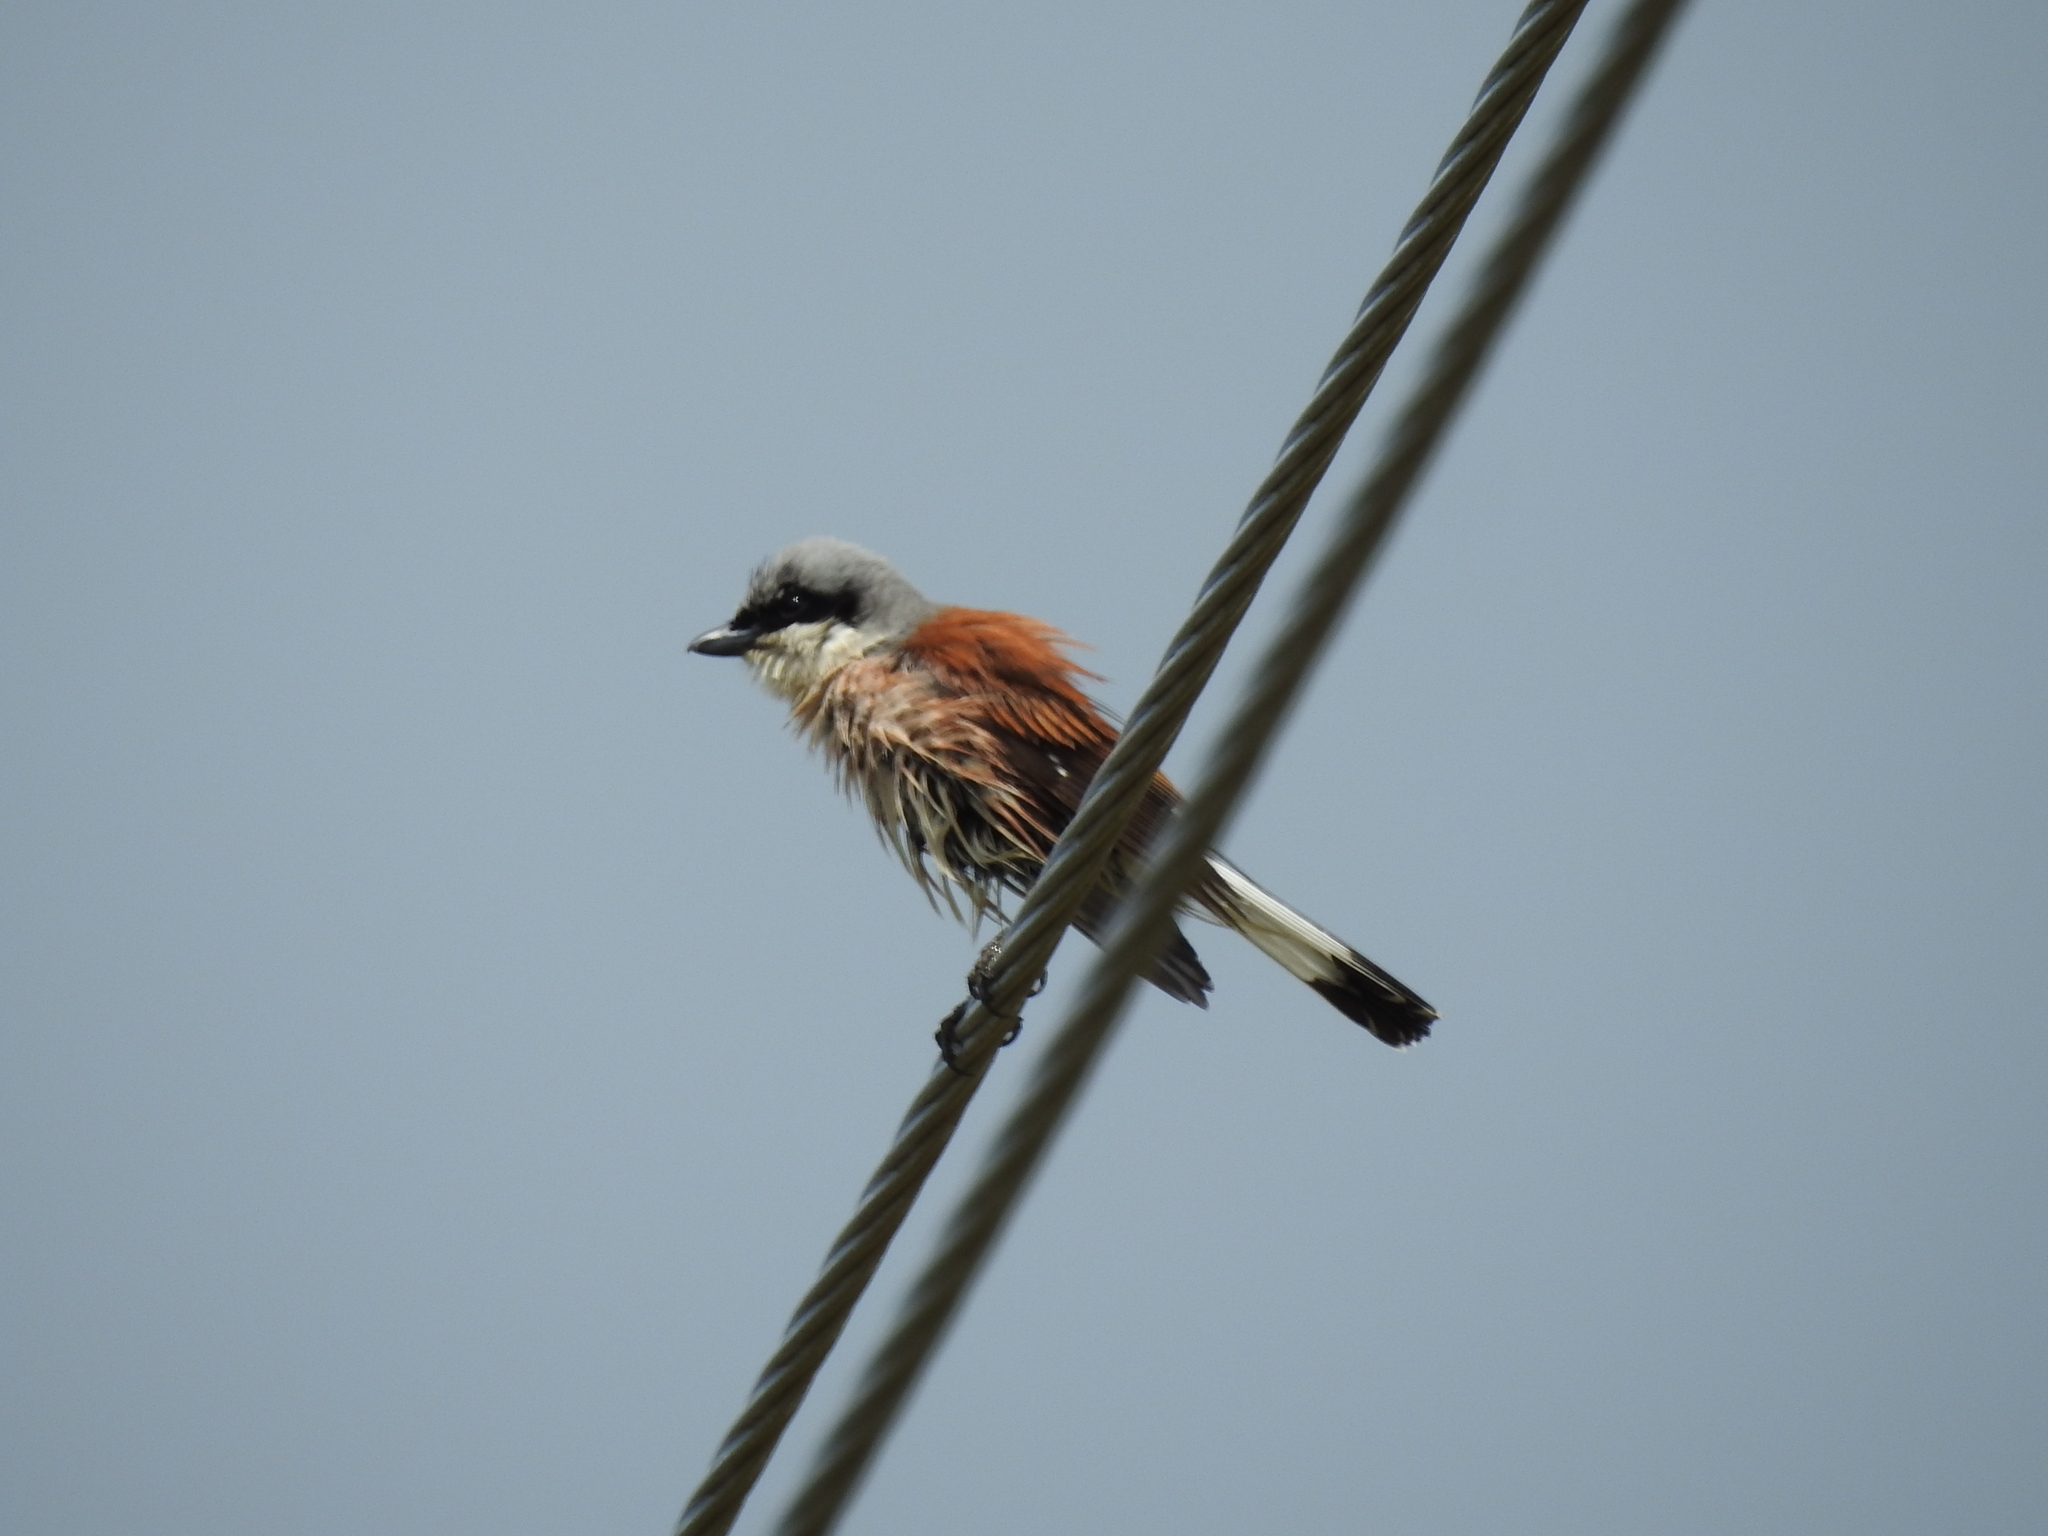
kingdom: Animalia
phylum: Chordata
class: Aves
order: Passeriformes
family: Laniidae
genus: Lanius
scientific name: Lanius collurio
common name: Red-backed shrike
